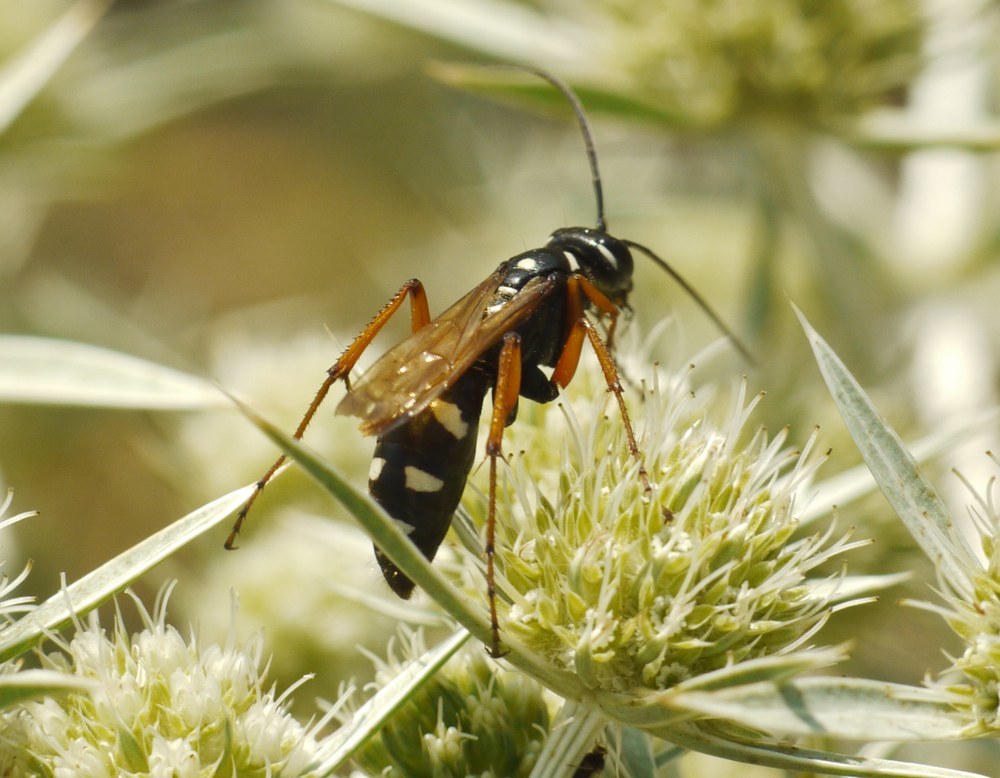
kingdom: Animalia
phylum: Arthropoda
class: Insecta
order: Hymenoptera
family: Pompilidae
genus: Cryptocheilus
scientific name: Cryptocheilus variabilis
